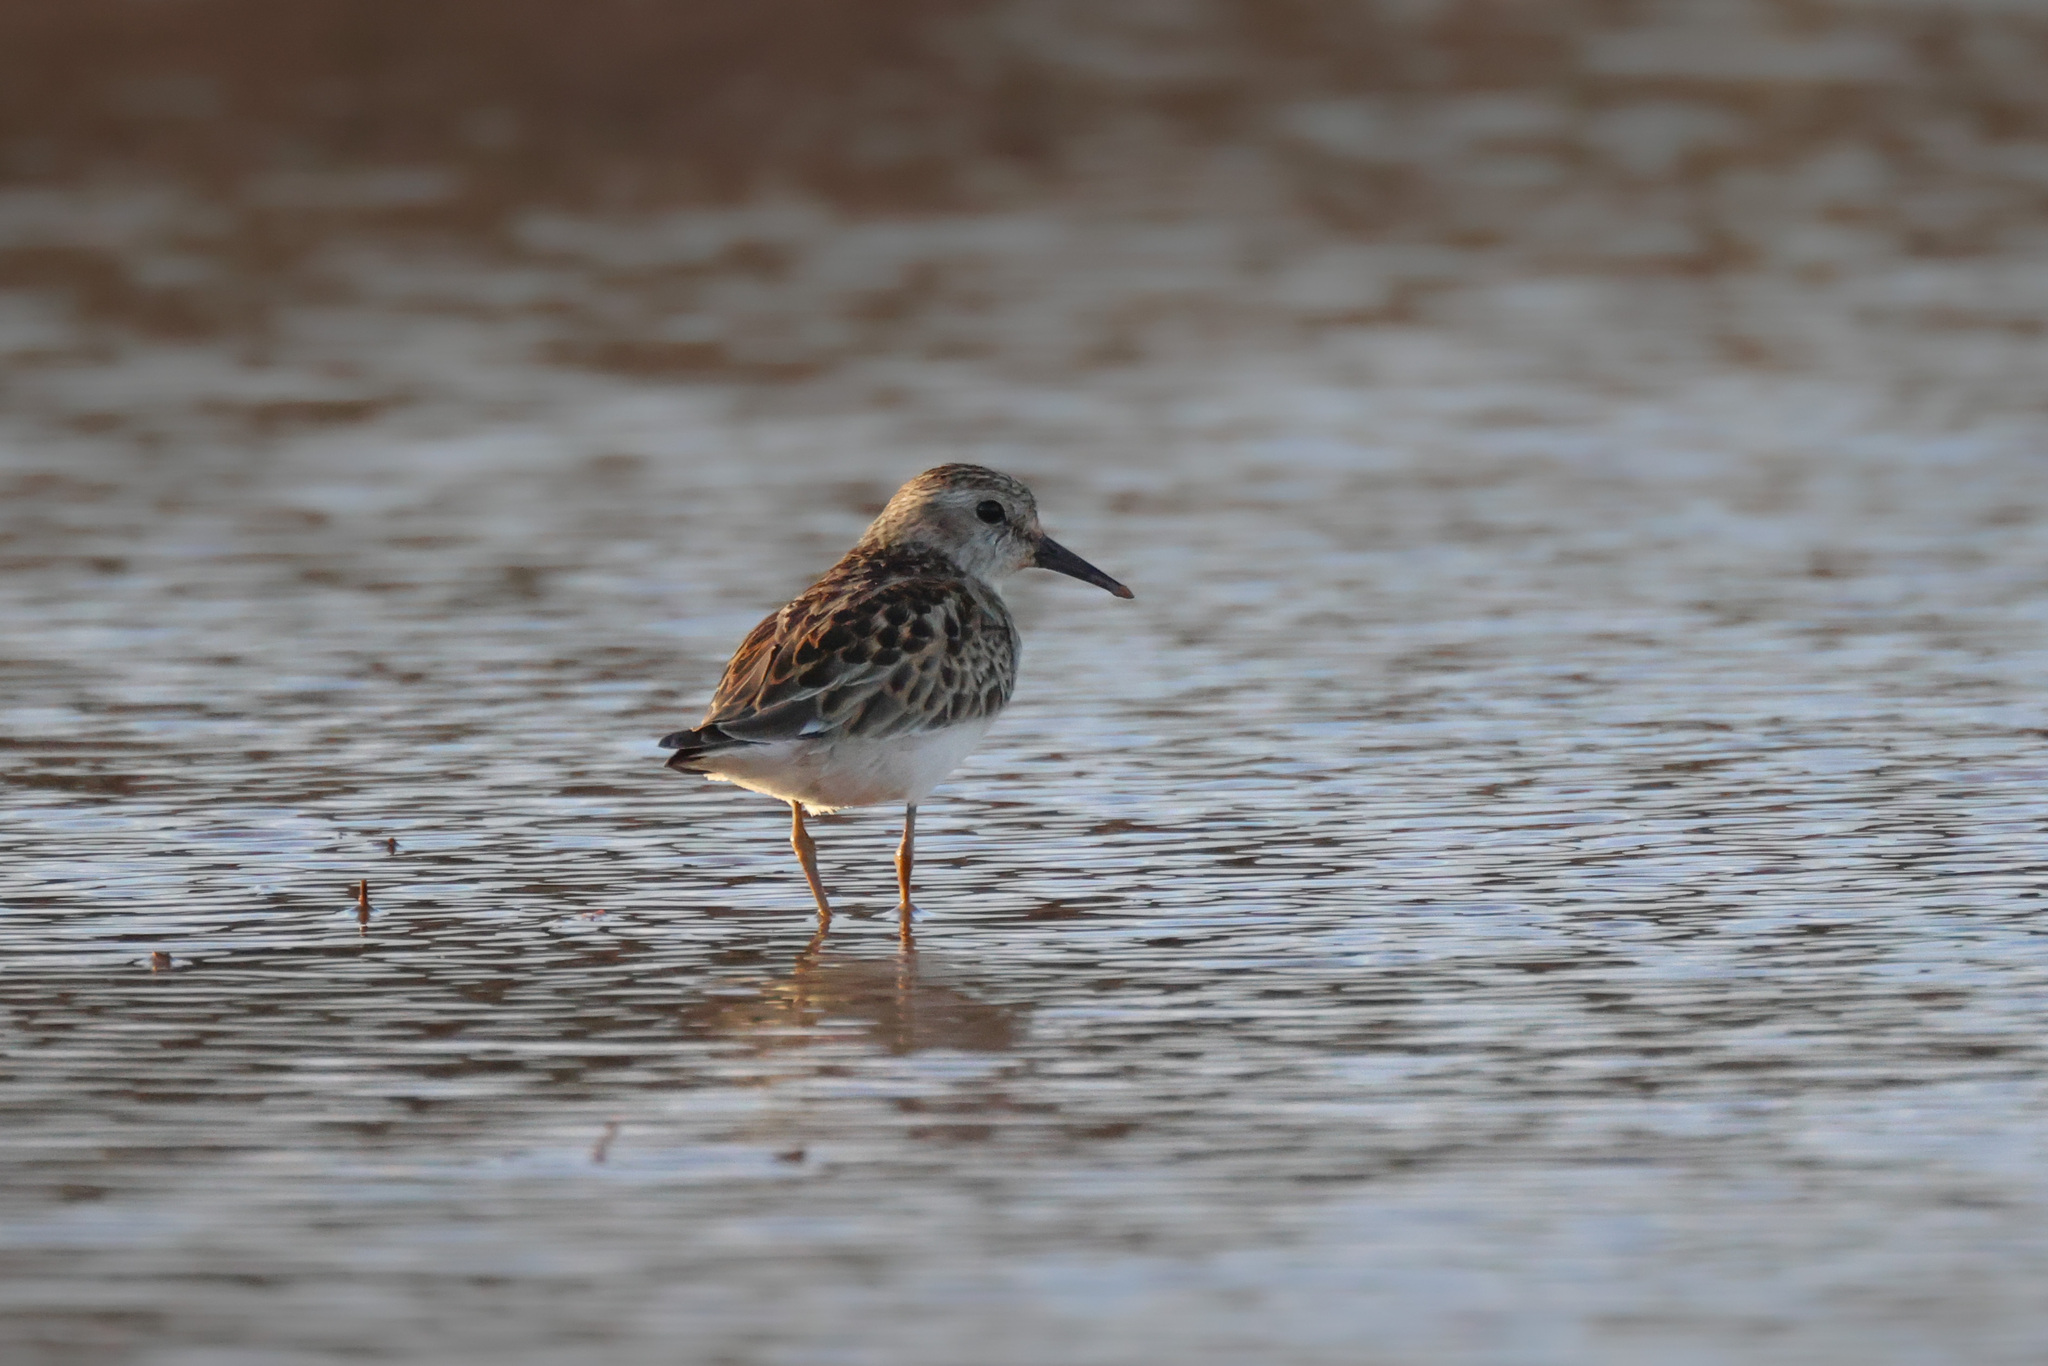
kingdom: Animalia
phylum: Chordata
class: Aves
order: Charadriiformes
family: Scolopacidae
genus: Calidris
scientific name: Calidris minutilla
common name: Least sandpiper
